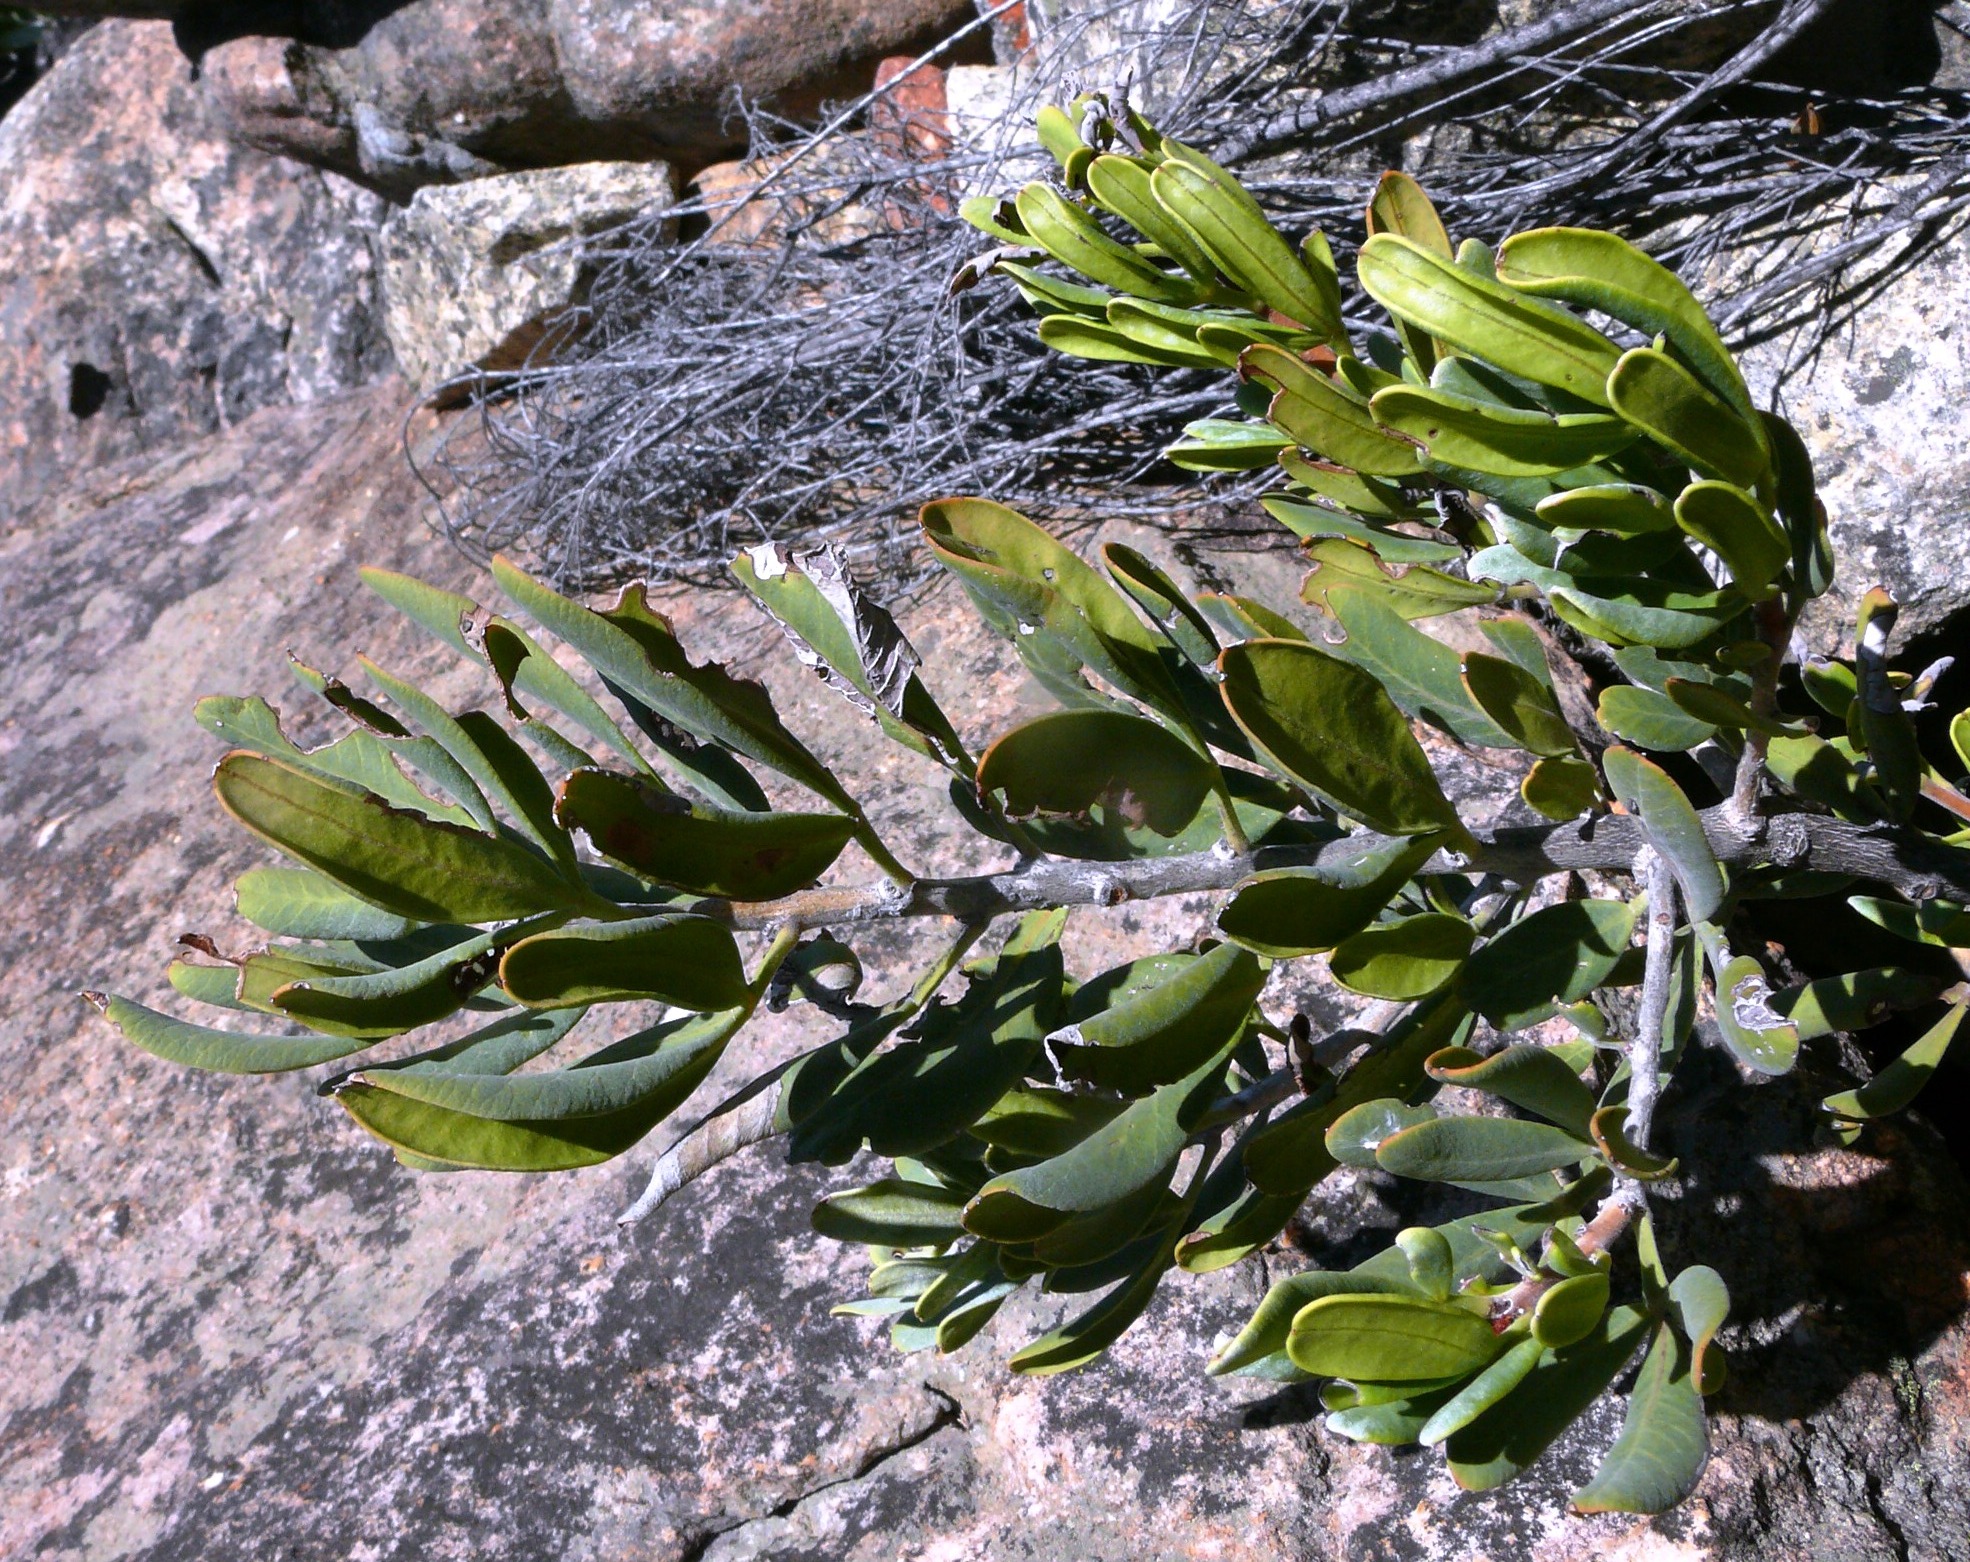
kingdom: Plantae
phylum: Tracheophyta
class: Magnoliopsida
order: Sapindales
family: Anacardiaceae
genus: Searsia
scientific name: Searsia scytophylla
